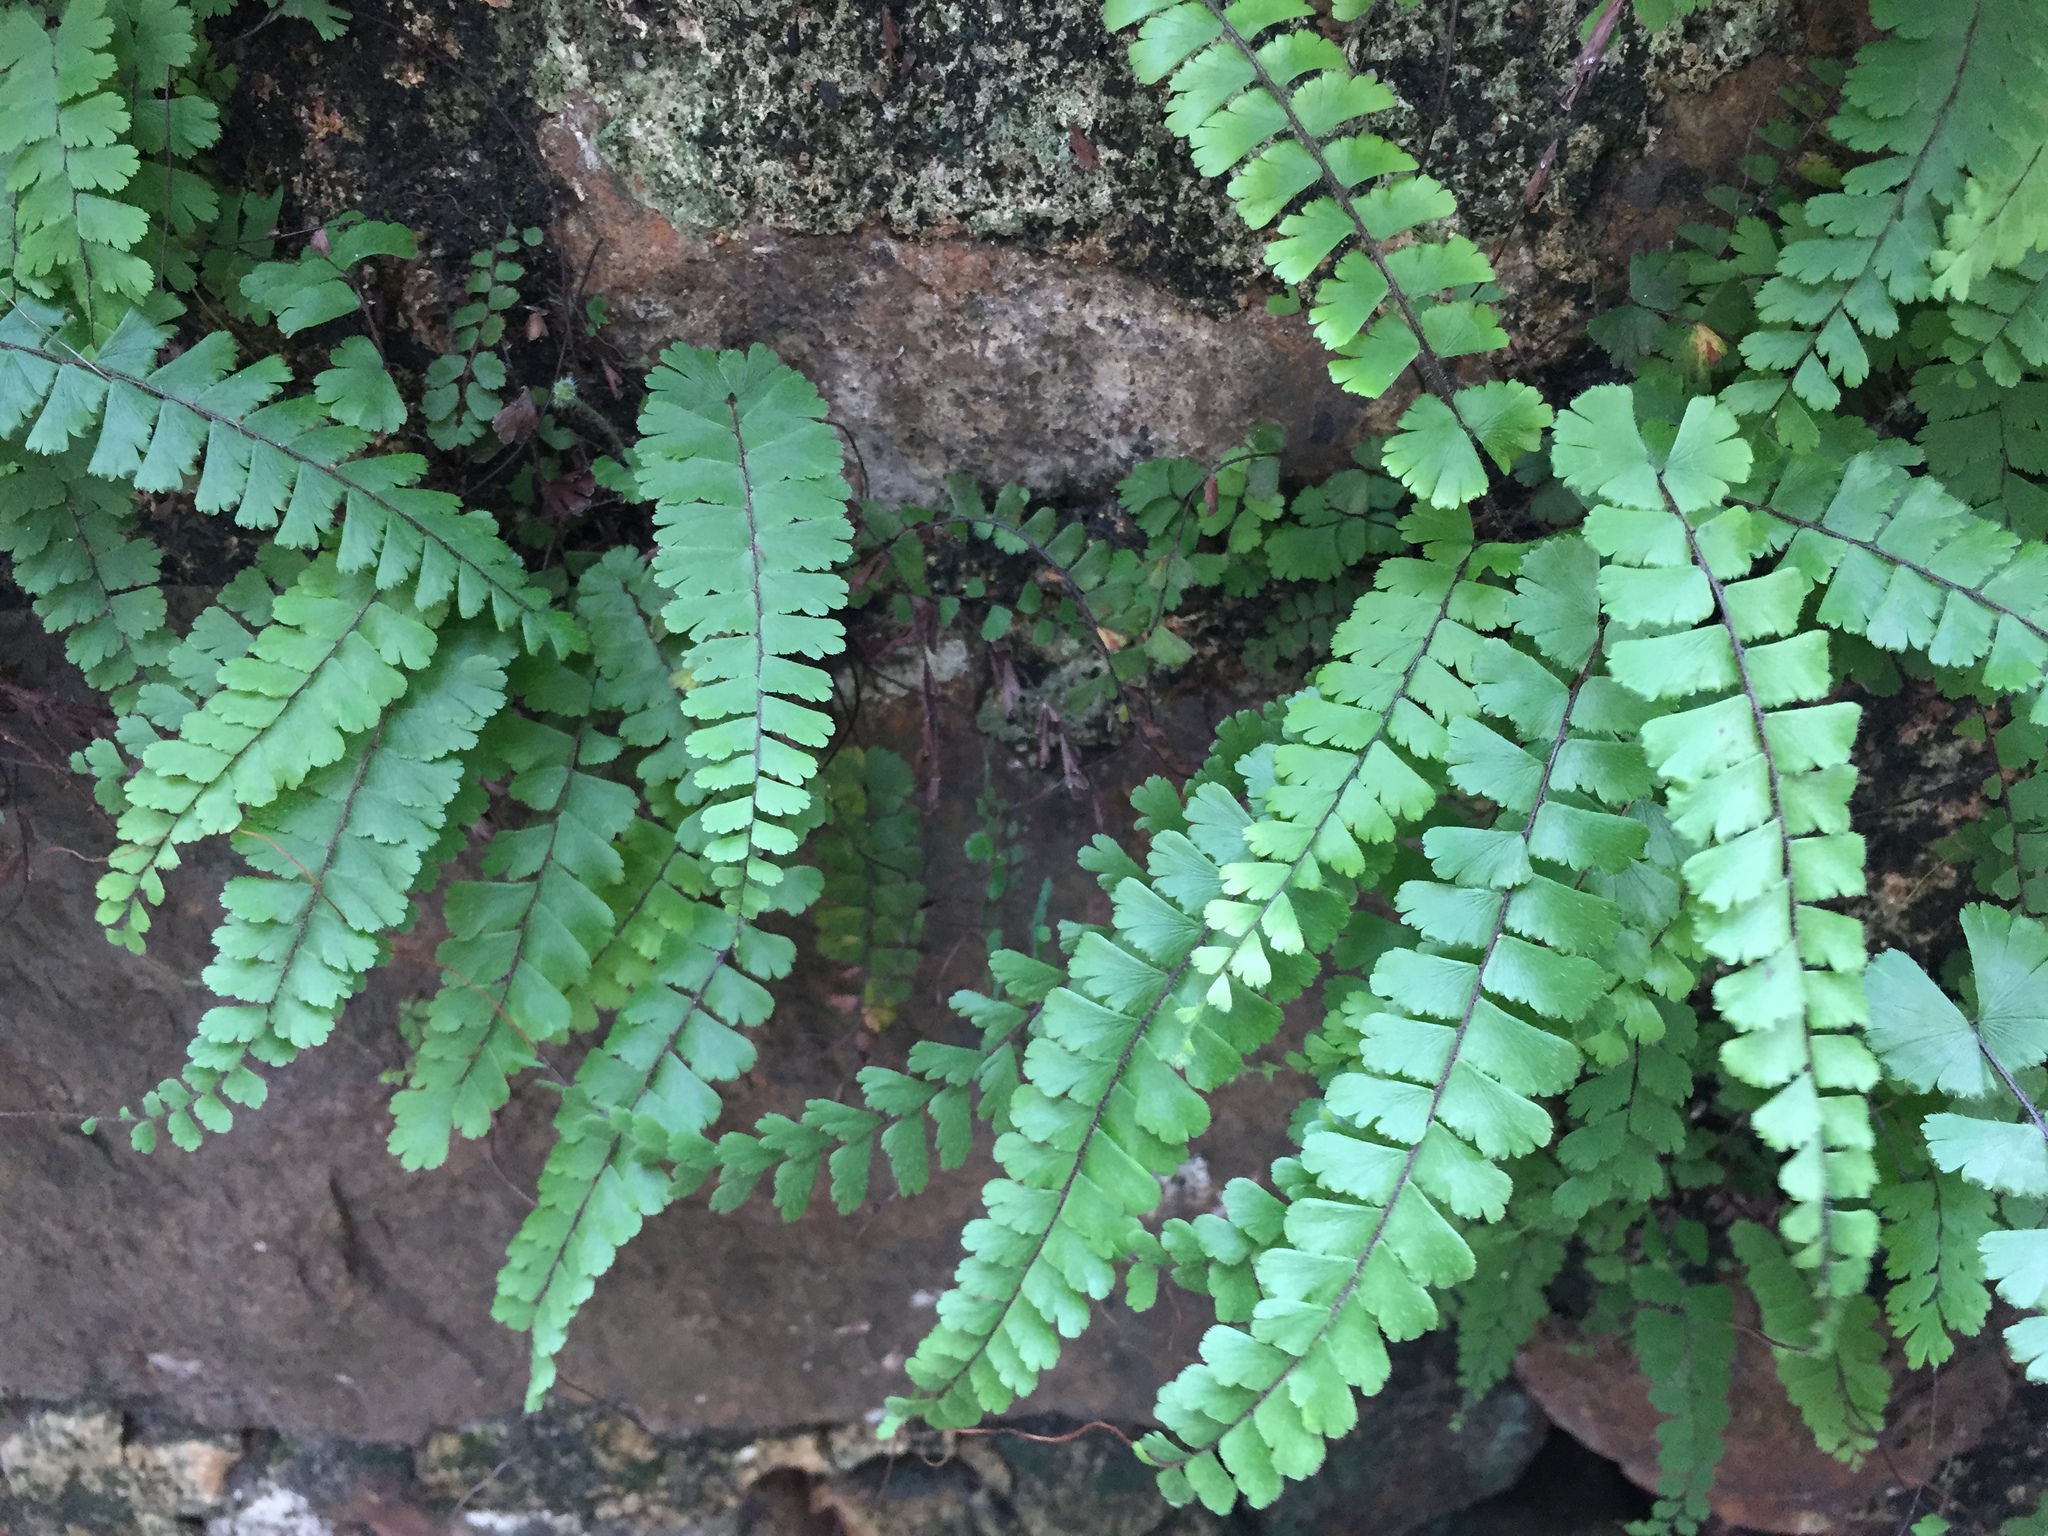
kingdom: Plantae
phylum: Tracheophyta
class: Polypodiopsida
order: Polypodiales
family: Pteridaceae
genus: Adiantum
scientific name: Adiantum ciliatum
